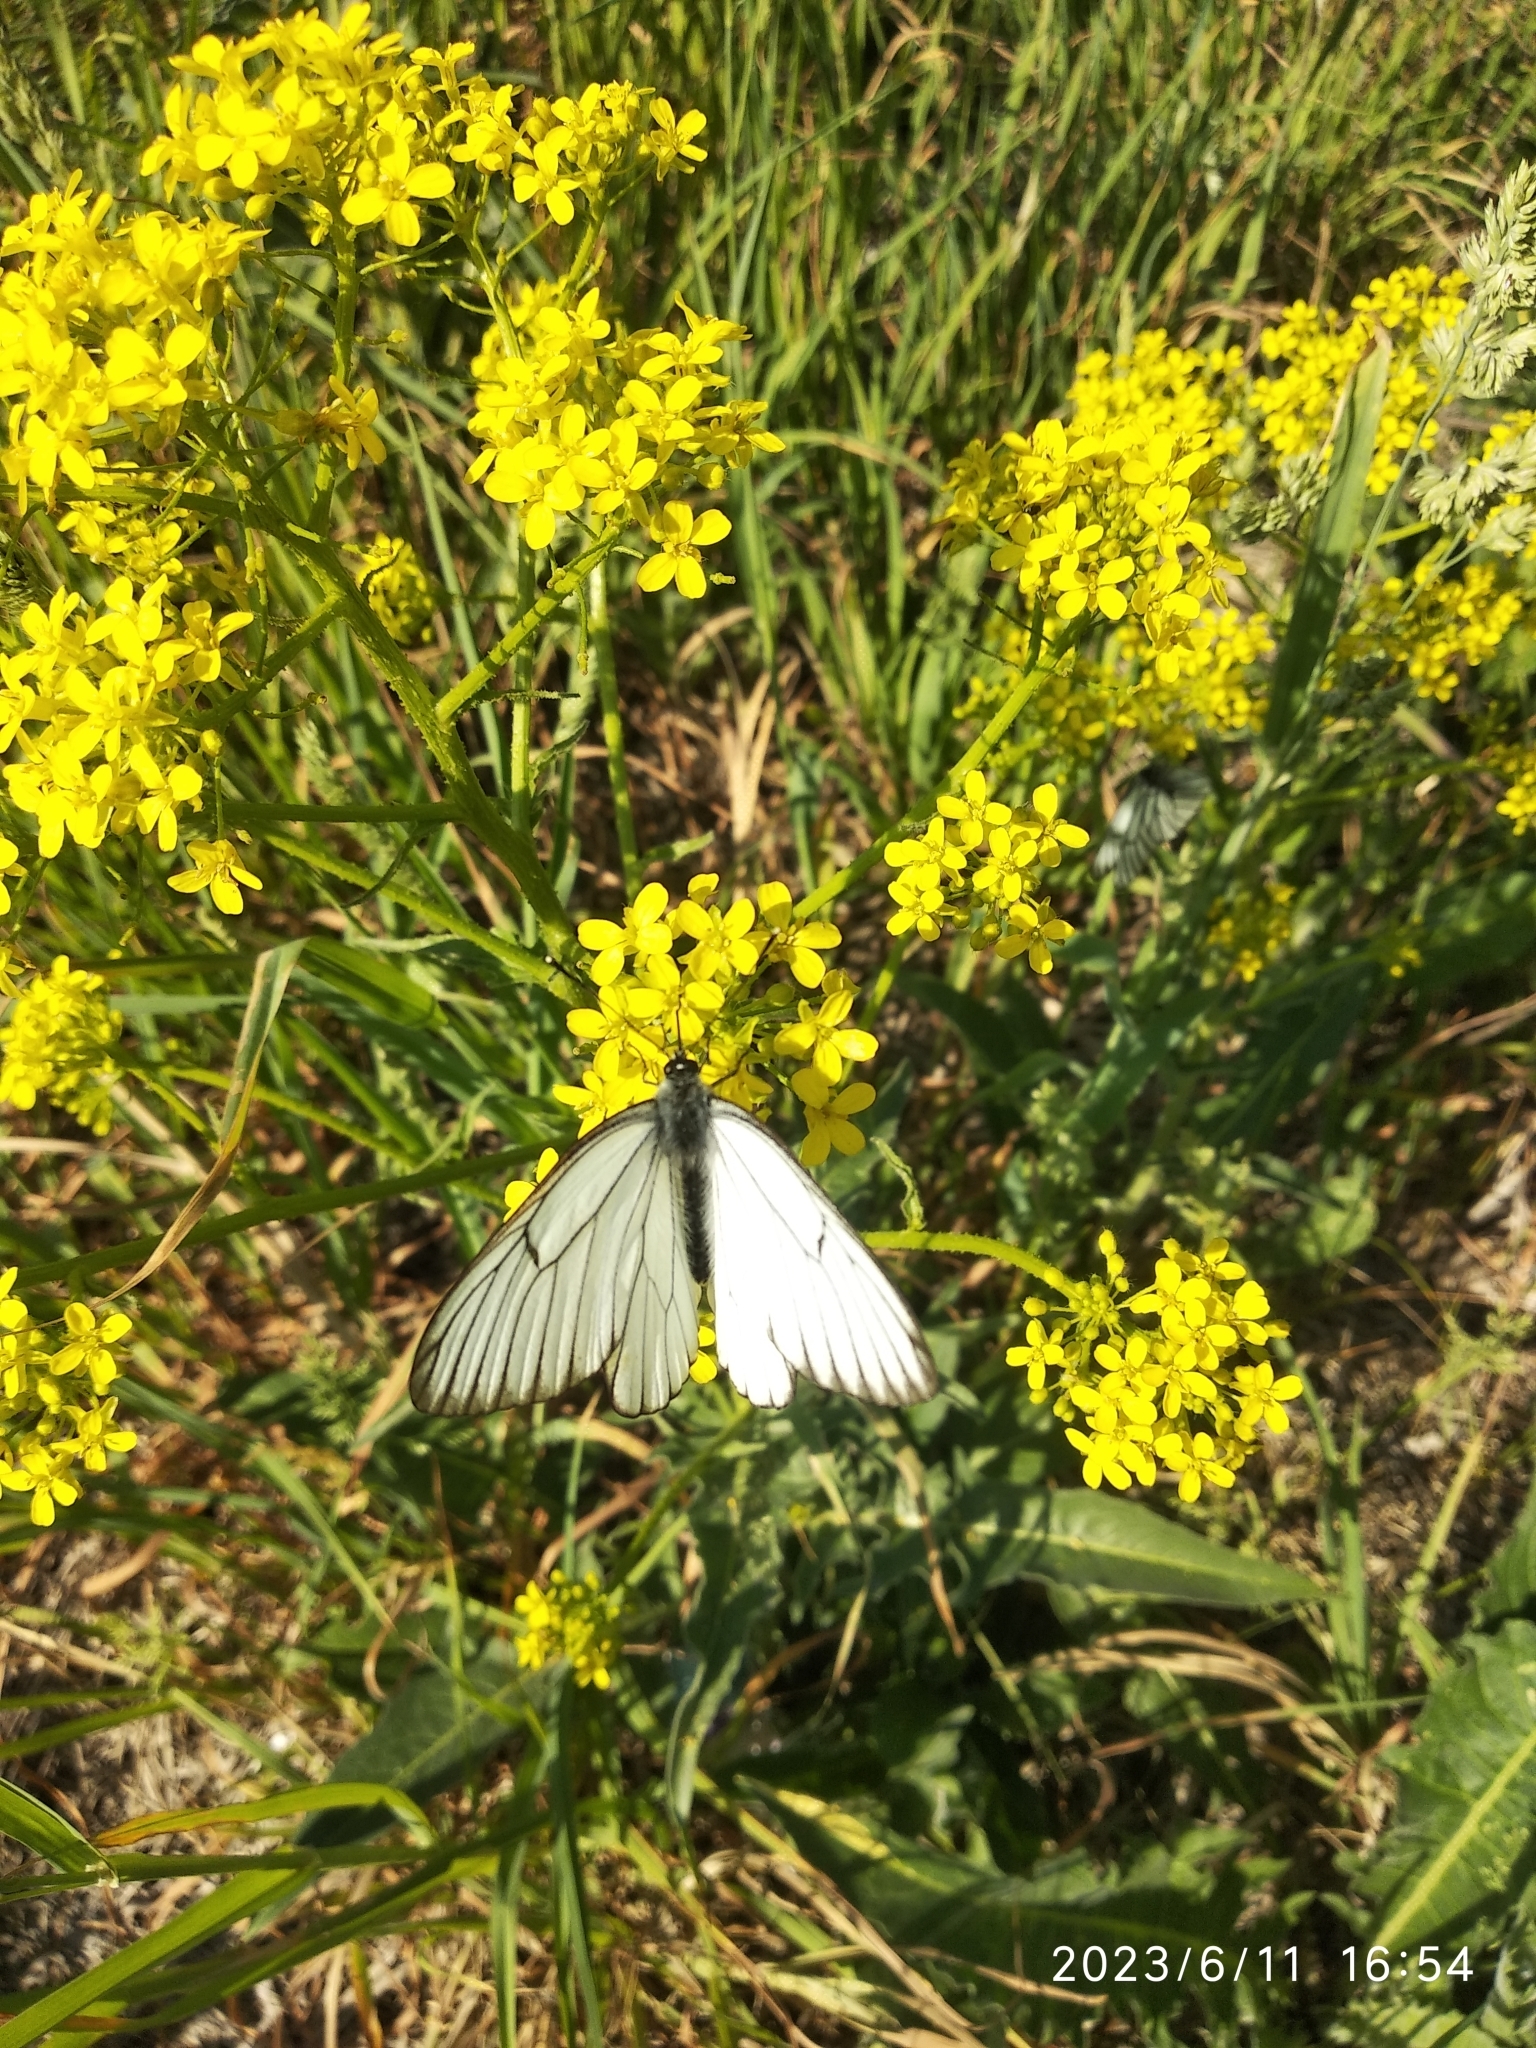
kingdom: Animalia
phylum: Arthropoda
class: Insecta
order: Lepidoptera
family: Pieridae
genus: Aporia
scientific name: Aporia crataegi
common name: Black-veined white
